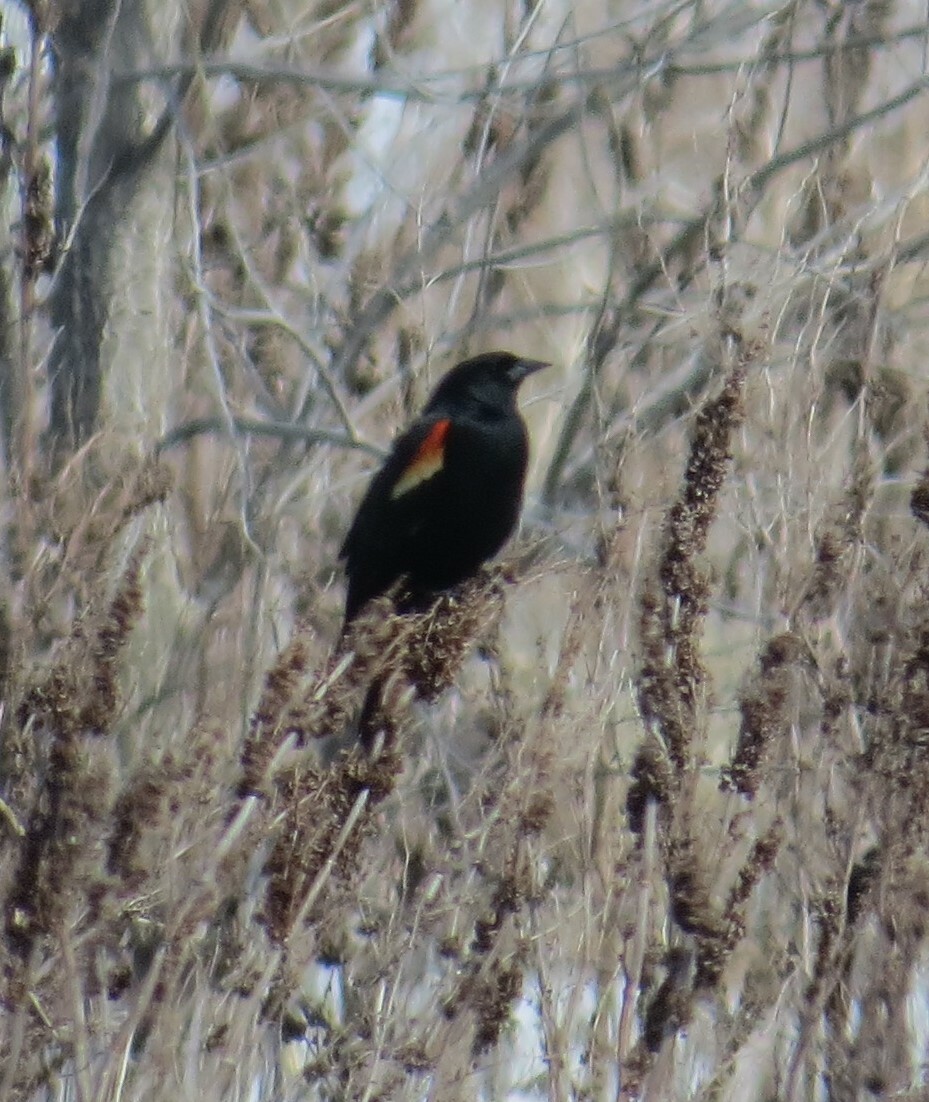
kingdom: Animalia
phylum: Chordata
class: Aves
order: Passeriformes
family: Icteridae
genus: Agelaius
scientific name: Agelaius phoeniceus
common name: Red-winged blackbird
